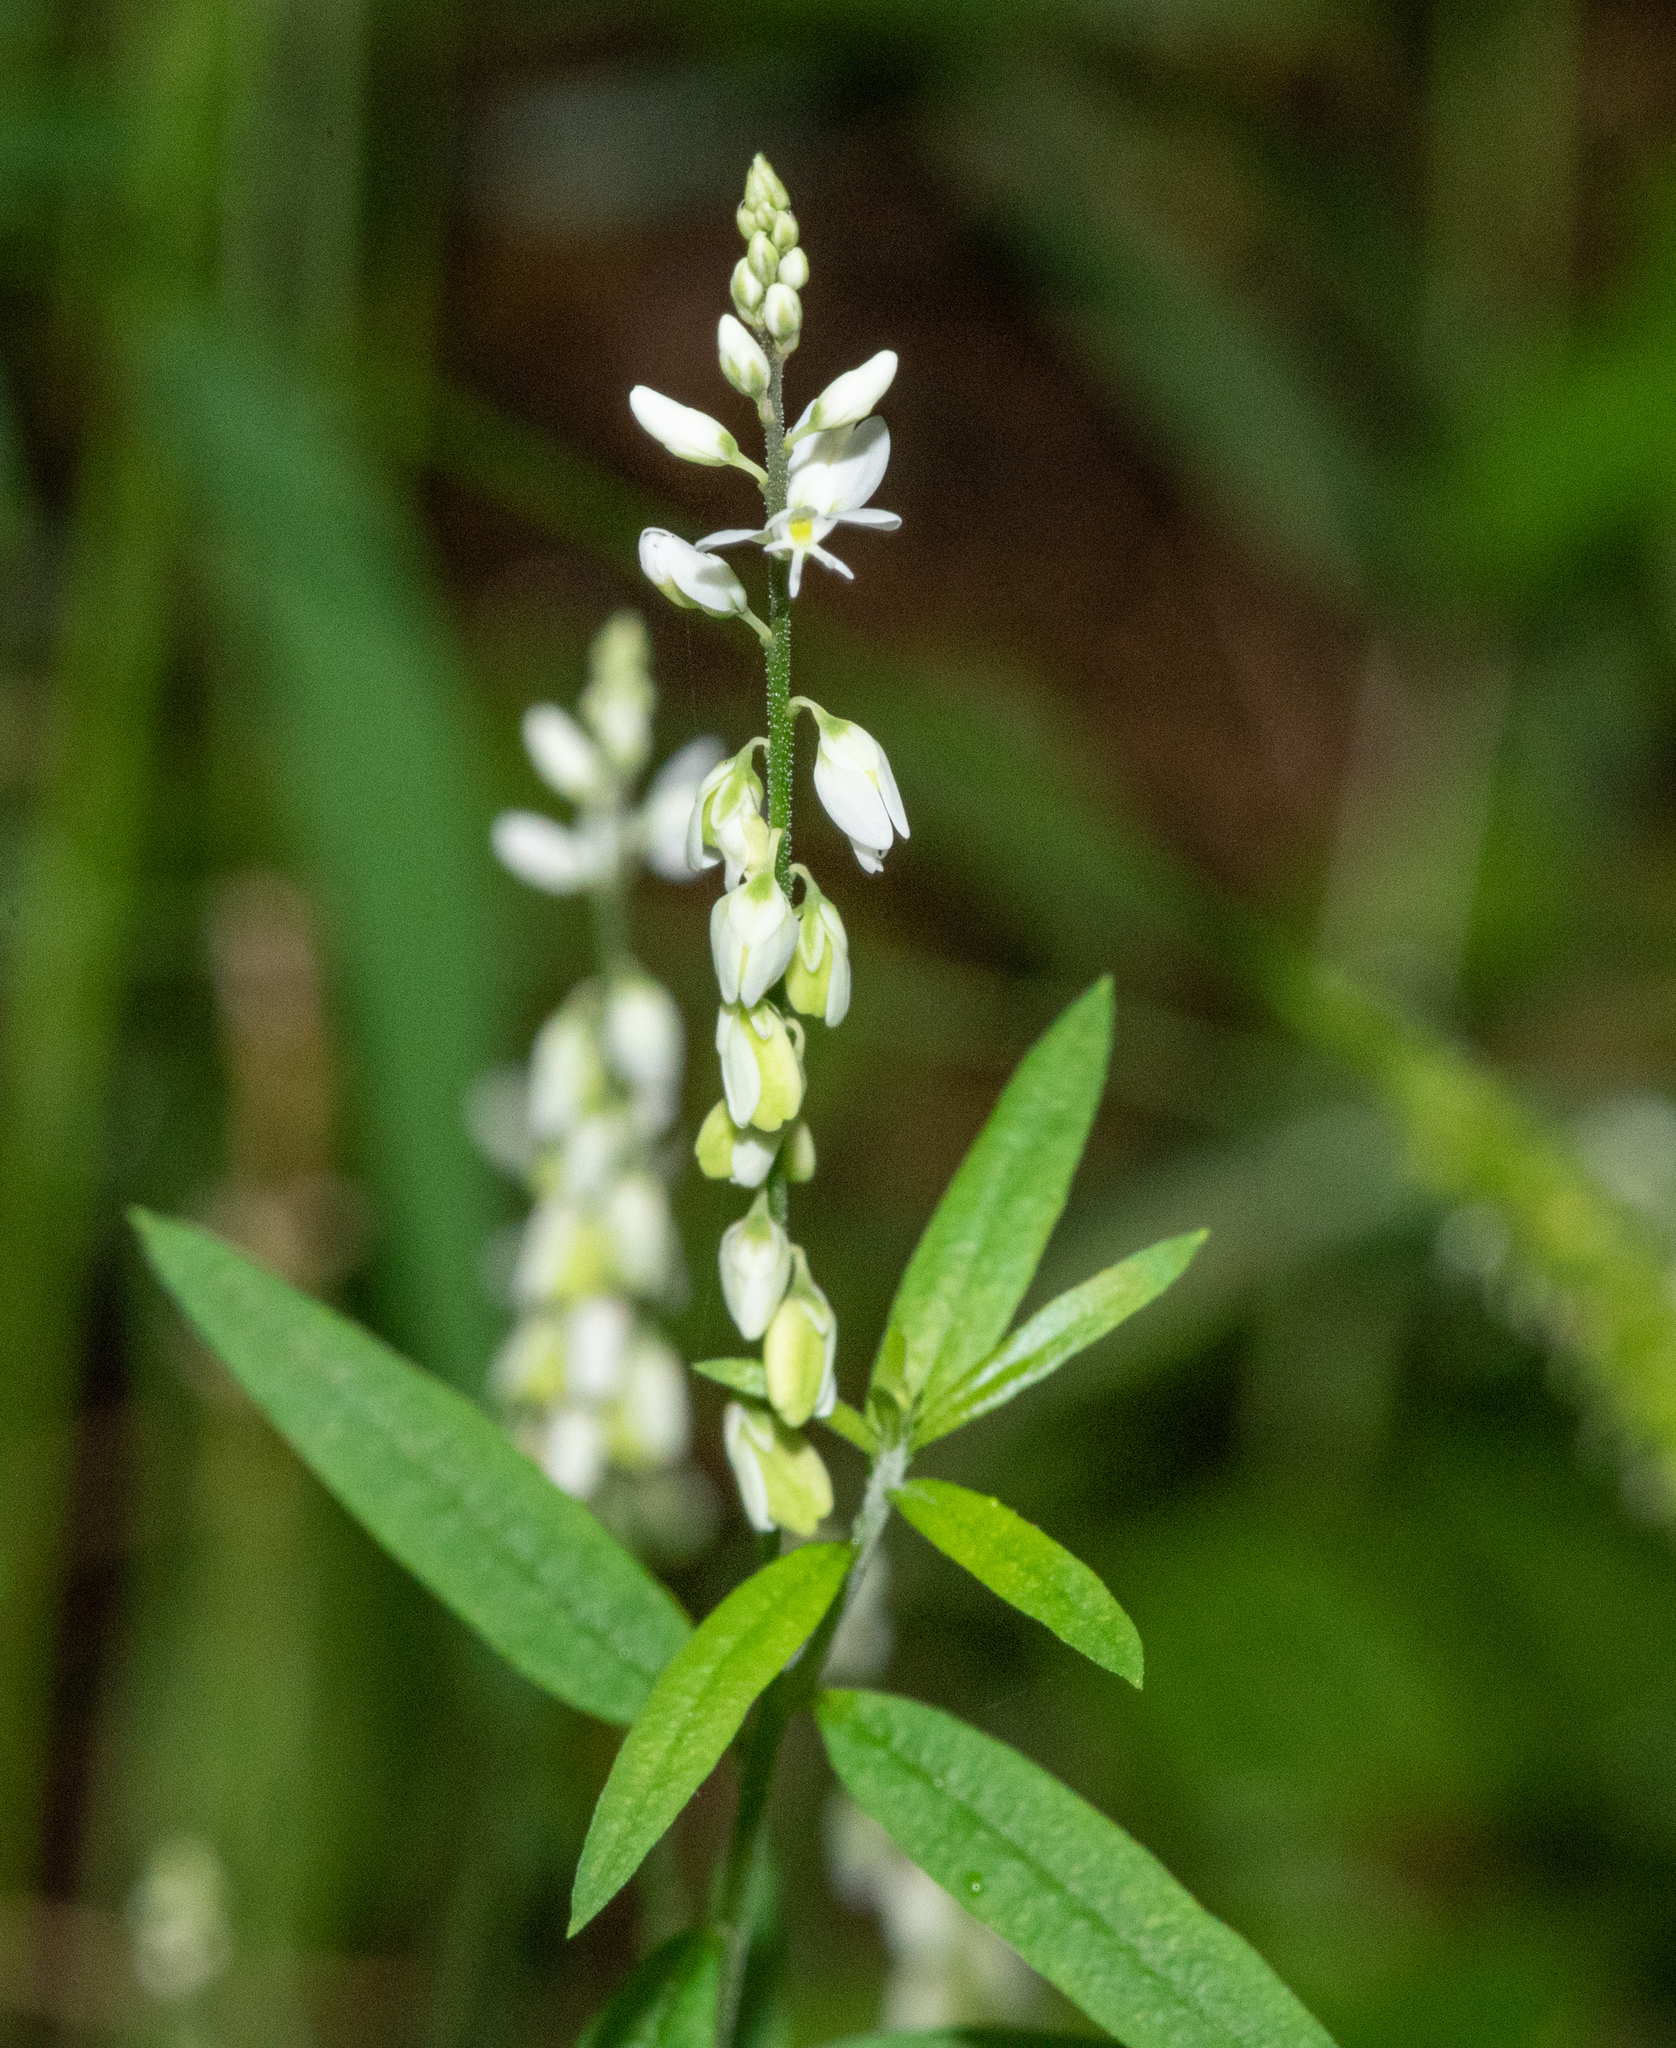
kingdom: Plantae
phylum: Tracheophyta
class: Magnoliopsida
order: Fabales
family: Polygalaceae
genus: Polygala
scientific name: Polygala paniculata
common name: Orosne
